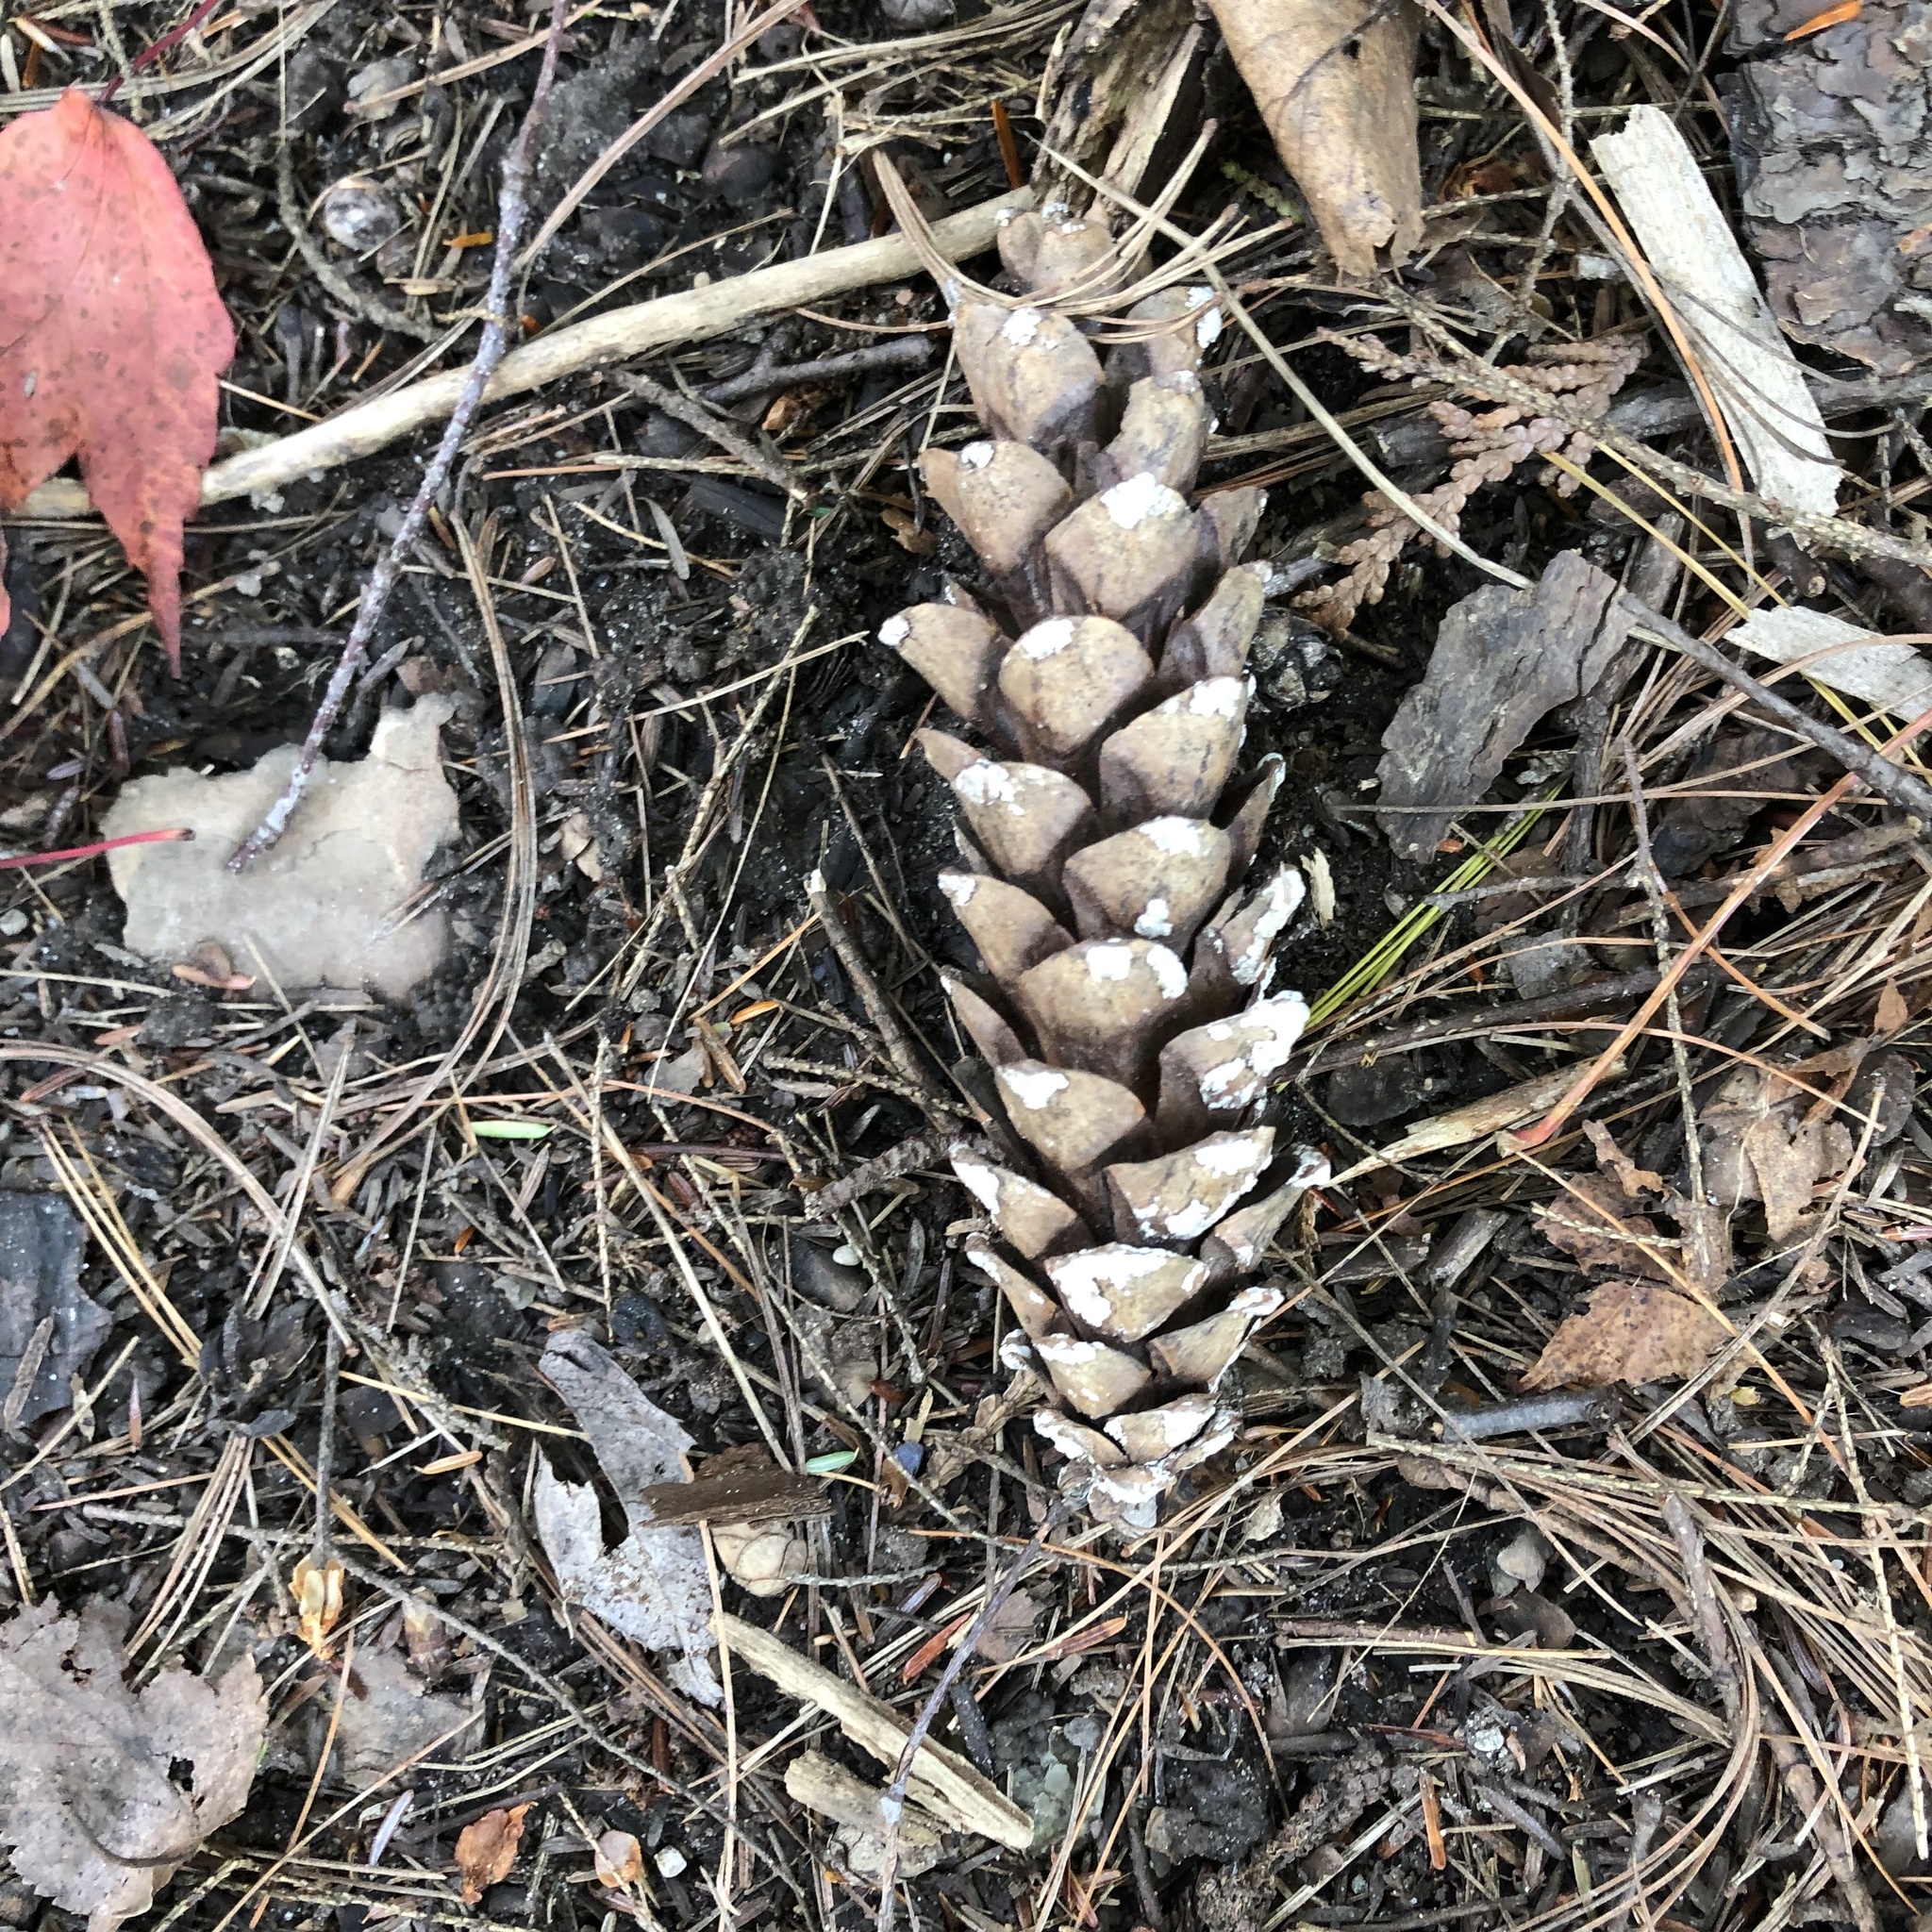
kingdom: Plantae
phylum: Tracheophyta
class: Pinopsida
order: Pinales
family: Pinaceae
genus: Pinus
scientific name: Pinus strobus
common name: Weymouth pine
